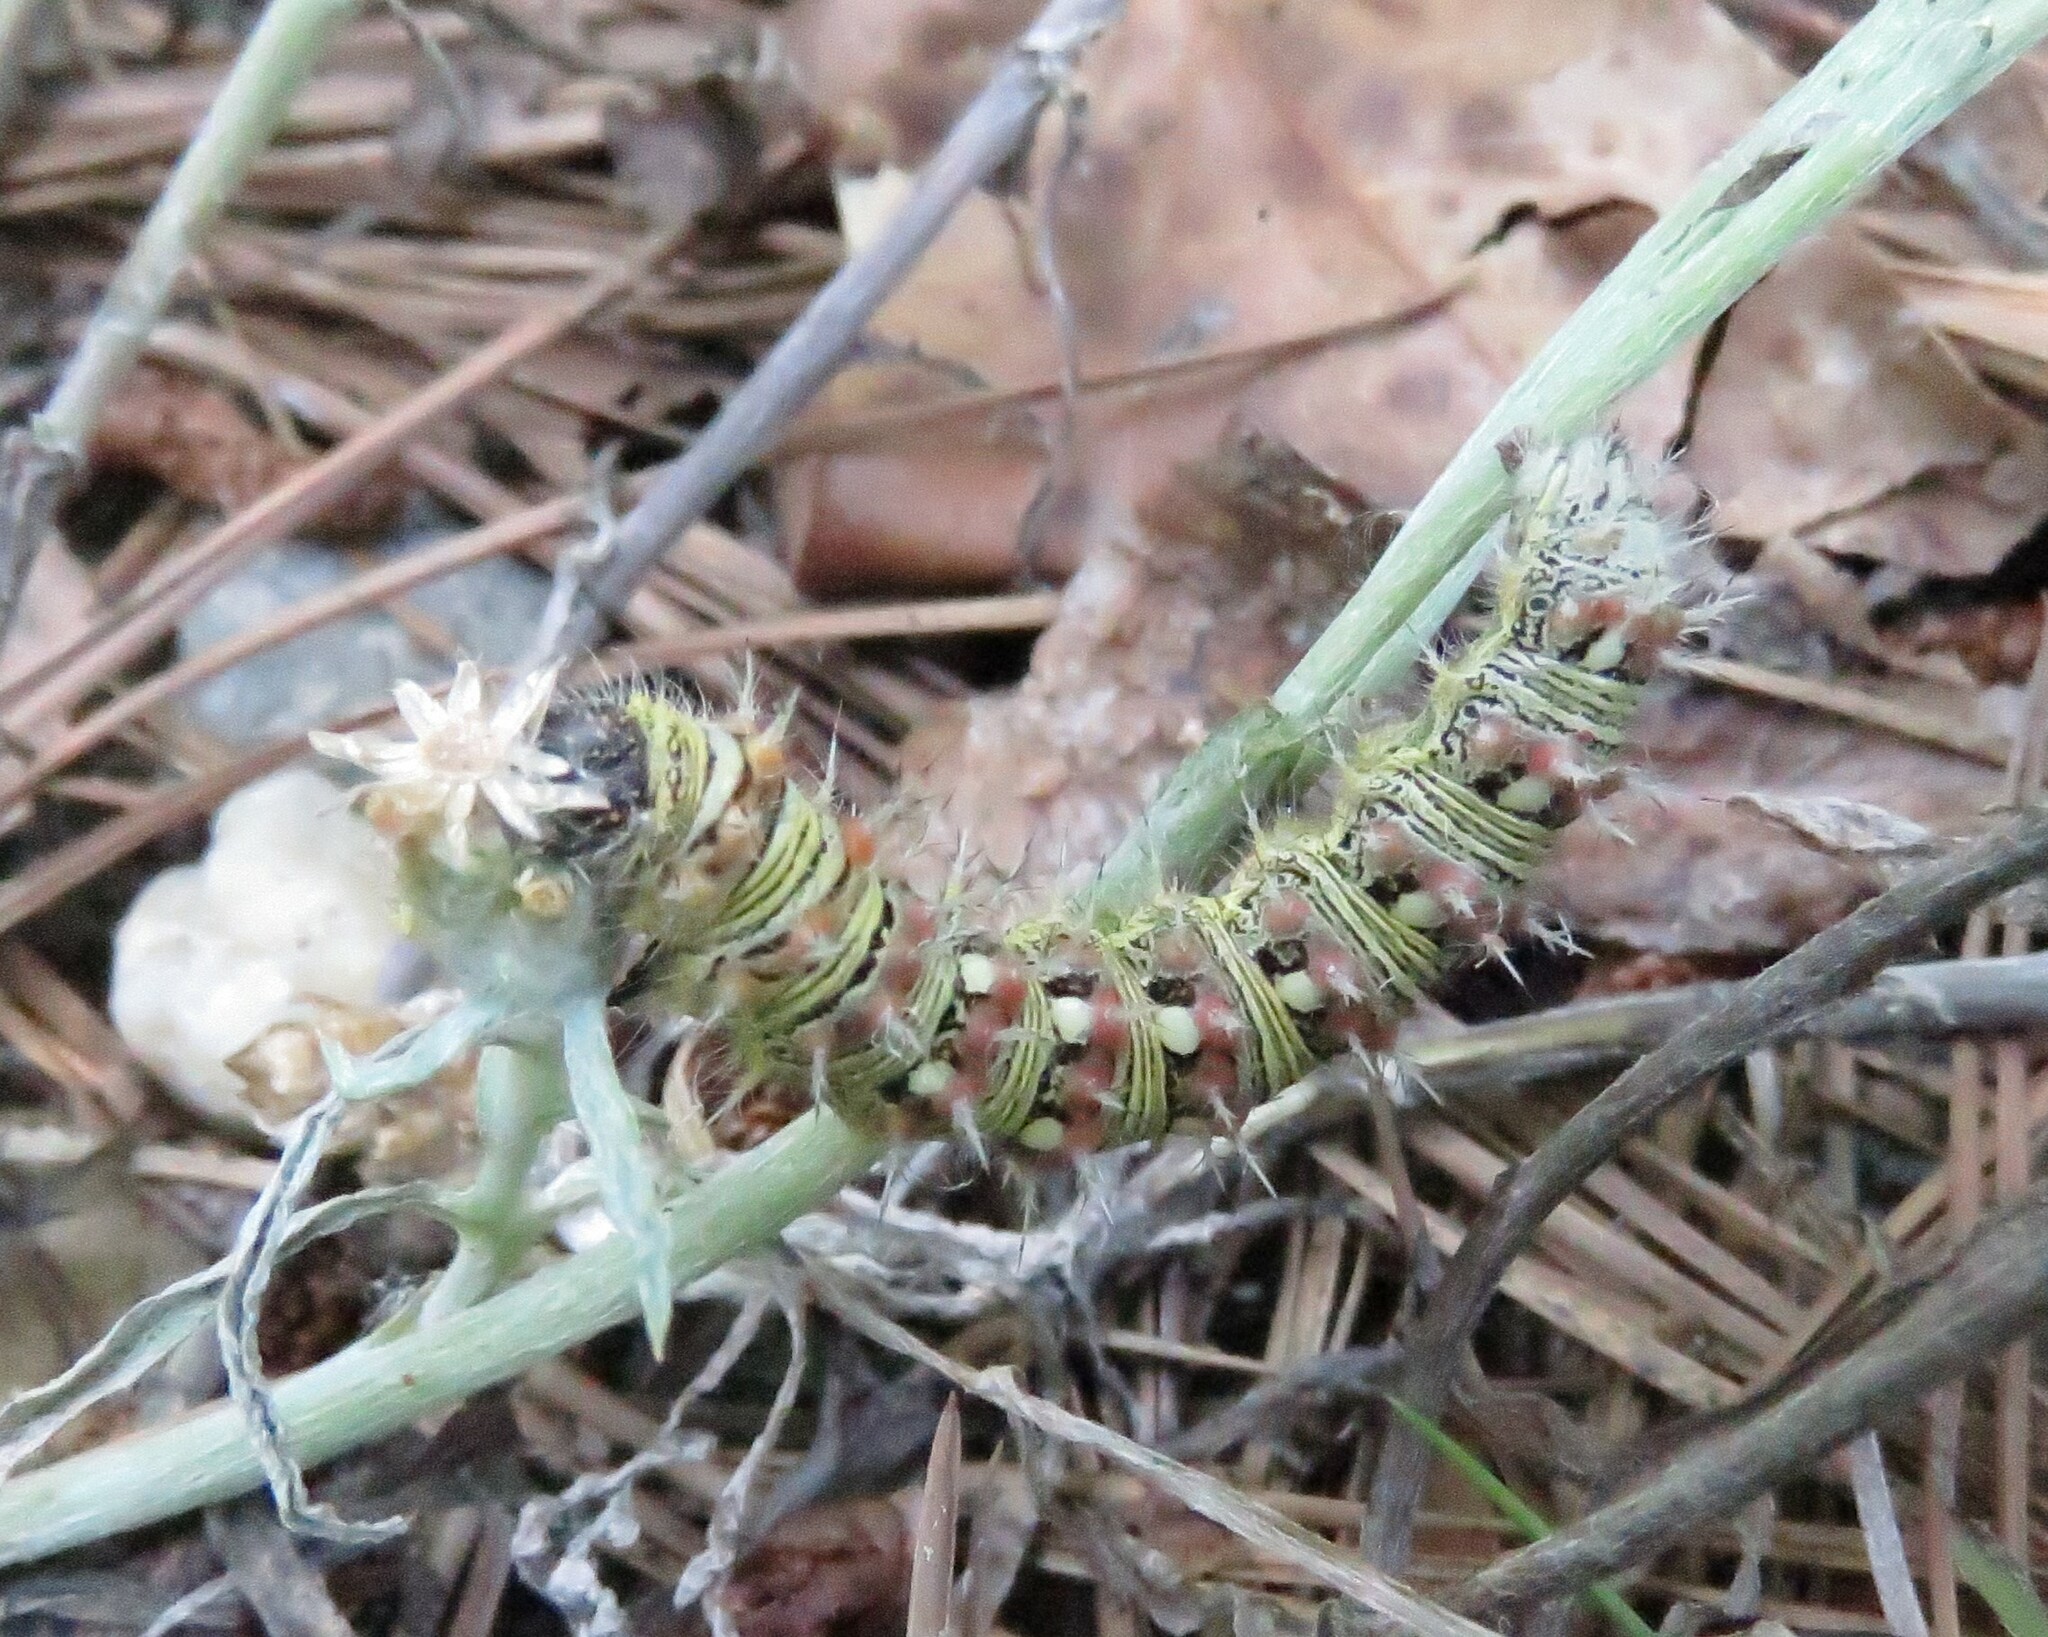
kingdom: Animalia
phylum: Arthropoda
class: Insecta
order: Lepidoptera
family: Nymphalidae
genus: Vanessa
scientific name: Vanessa virginiensis
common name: American lady
